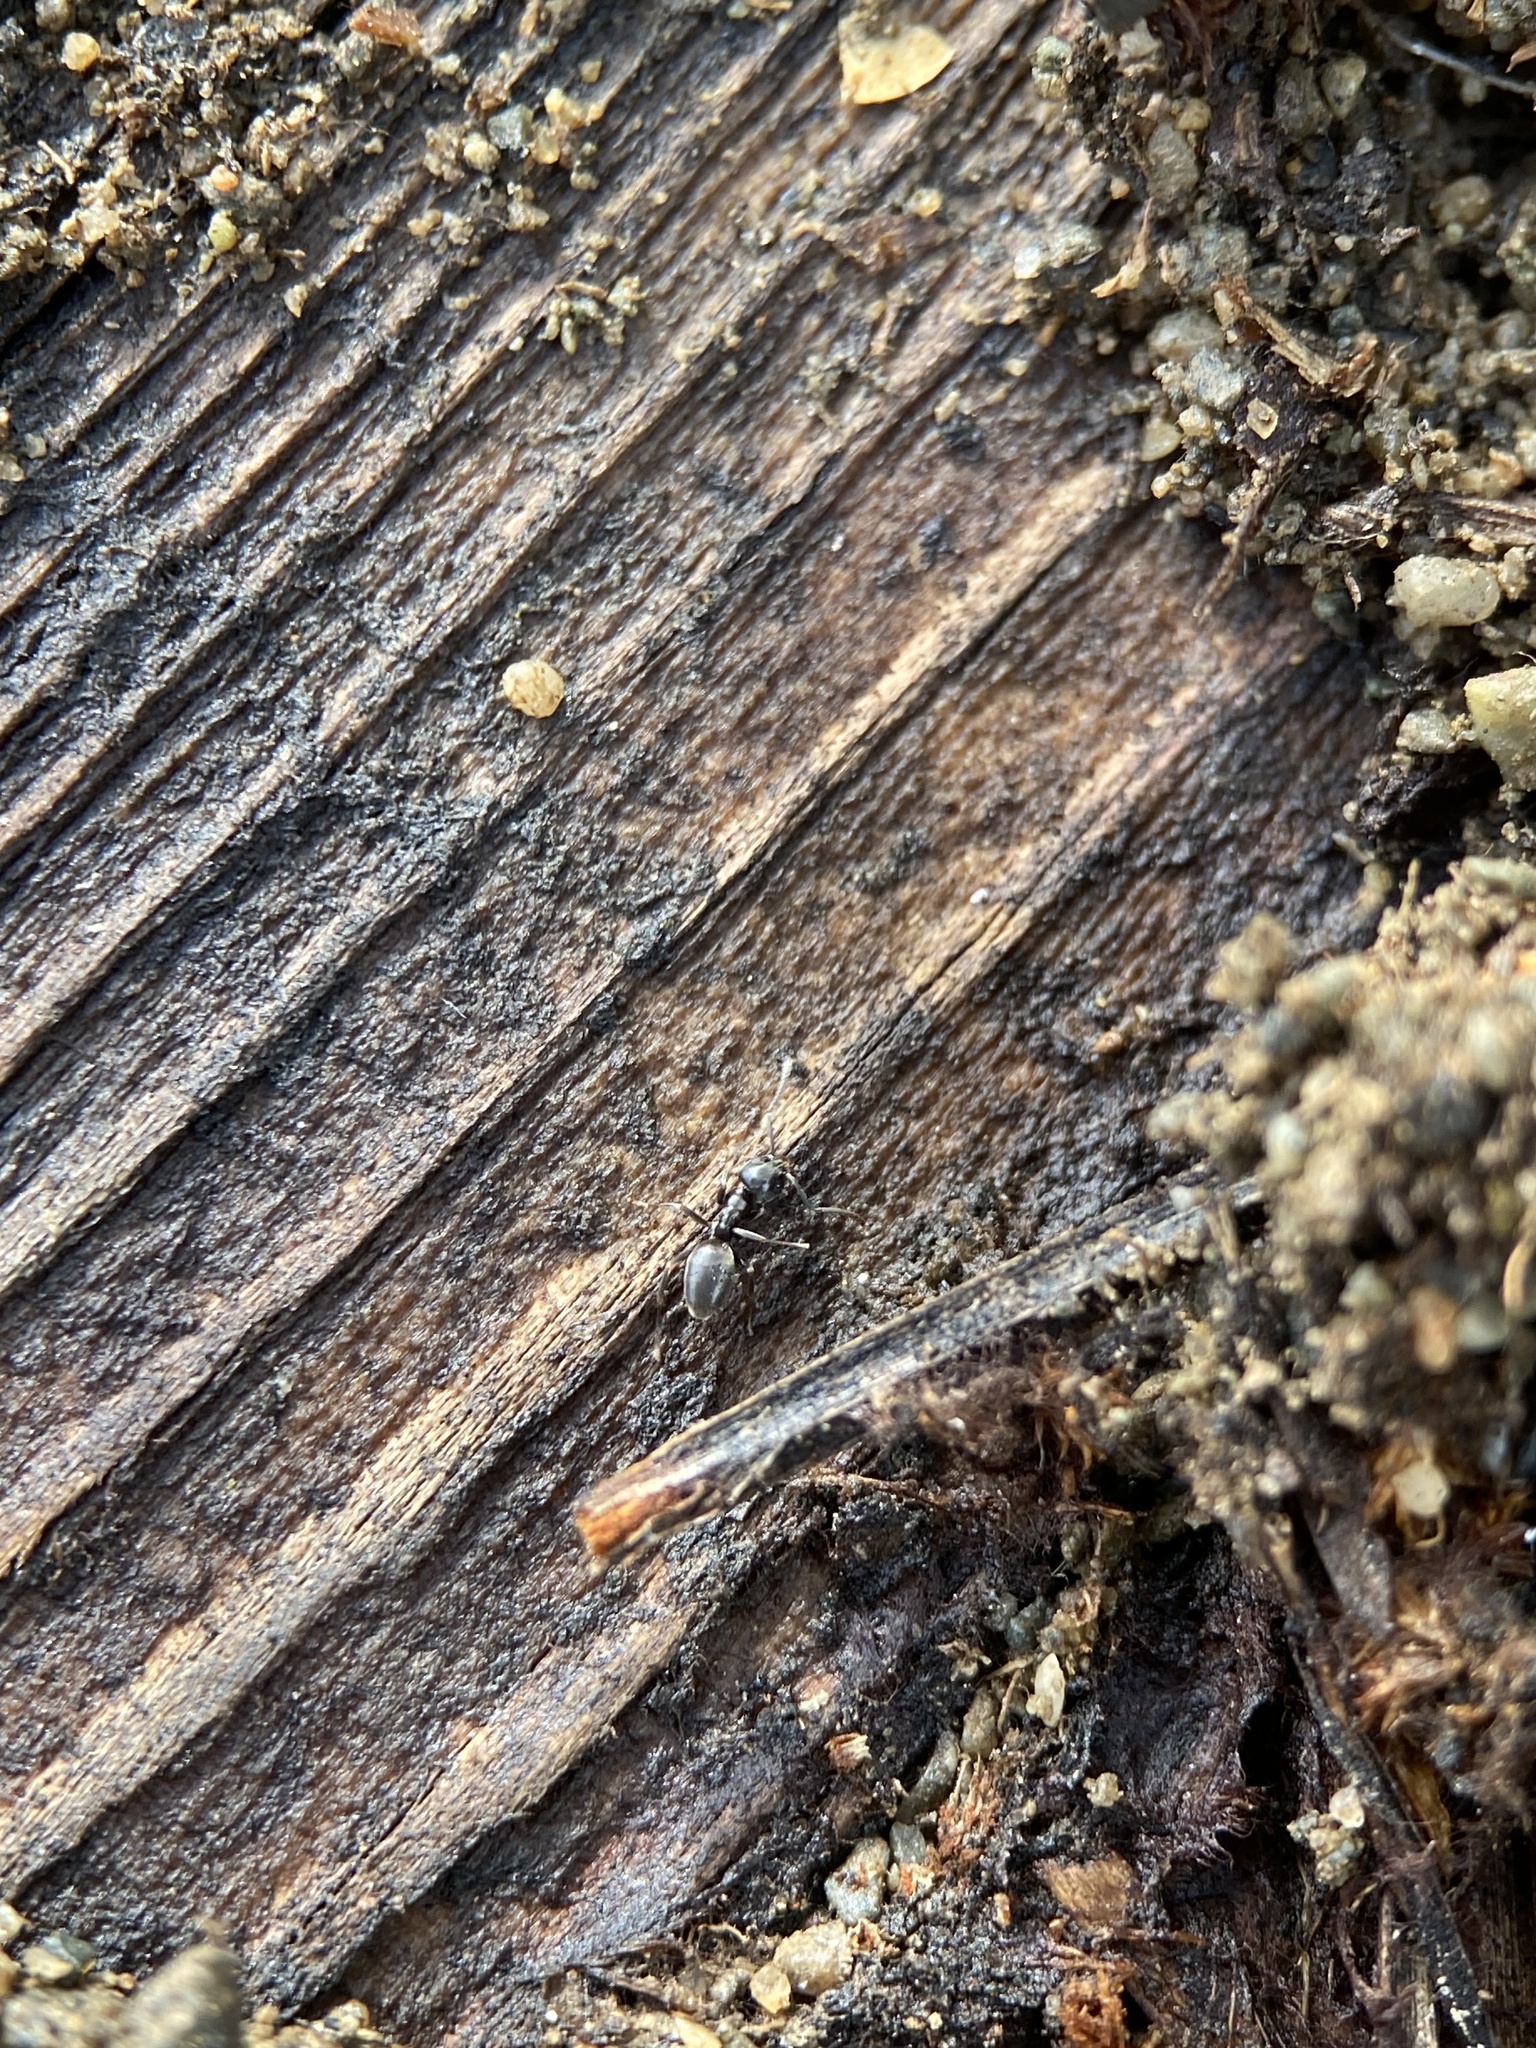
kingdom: Animalia
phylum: Arthropoda
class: Insecta
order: Hymenoptera
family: Formicidae
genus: Tapinoma
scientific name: Tapinoma sessile
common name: Odorous house ant
